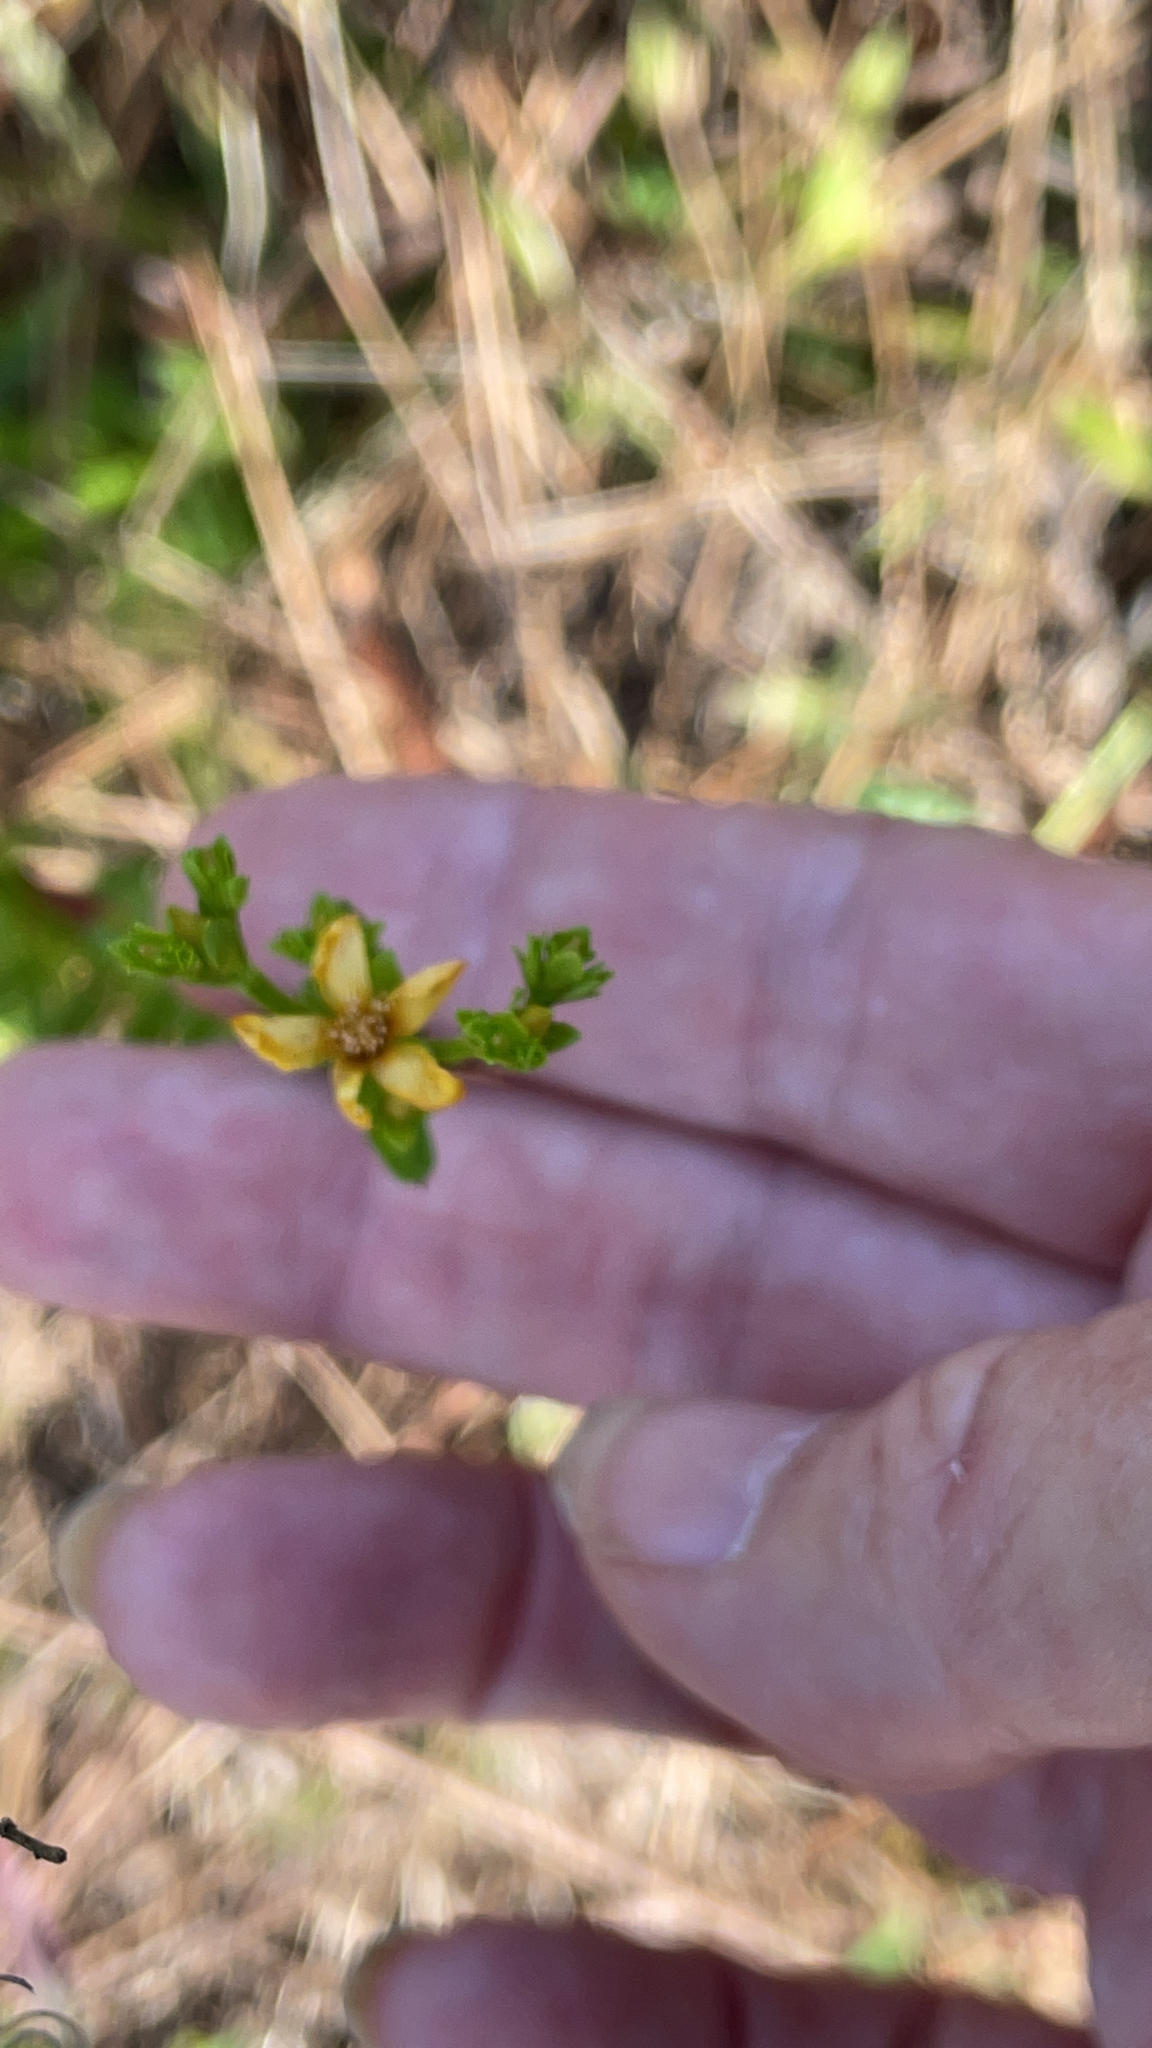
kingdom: Plantae
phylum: Tracheophyta
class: Magnoliopsida
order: Malpighiales
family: Hypericaceae
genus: Hypericum
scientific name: Hypericum cistifolium
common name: Round-pod st. john's-wort
